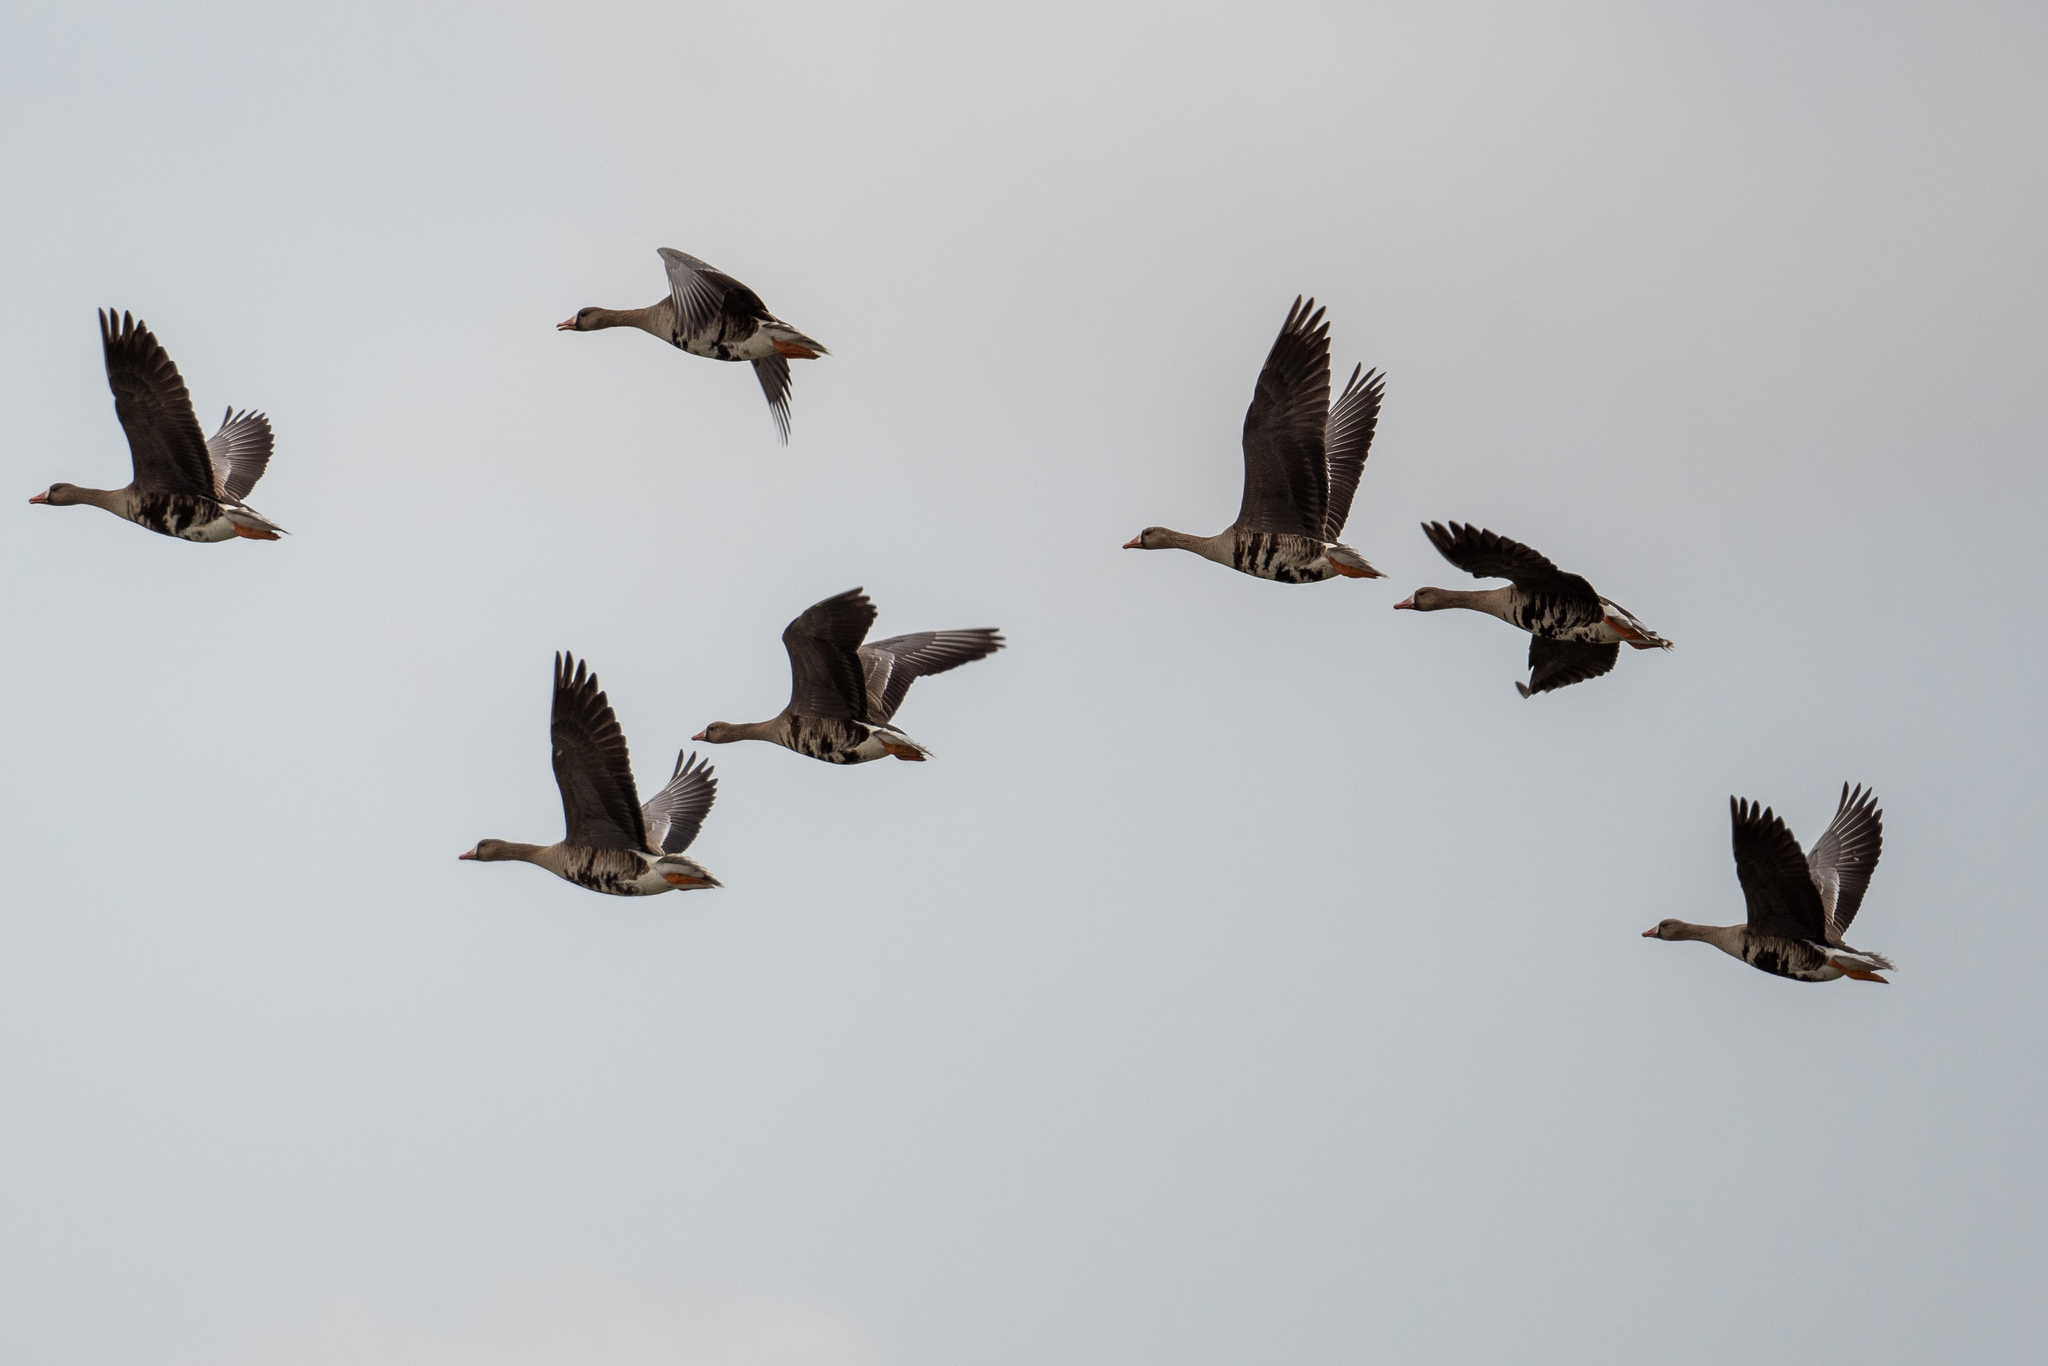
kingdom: Animalia
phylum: Chordata
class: Aves
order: Anseriformes
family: Anatidae
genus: Anser
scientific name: Anser albifrons
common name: Greater white-fronted goose
